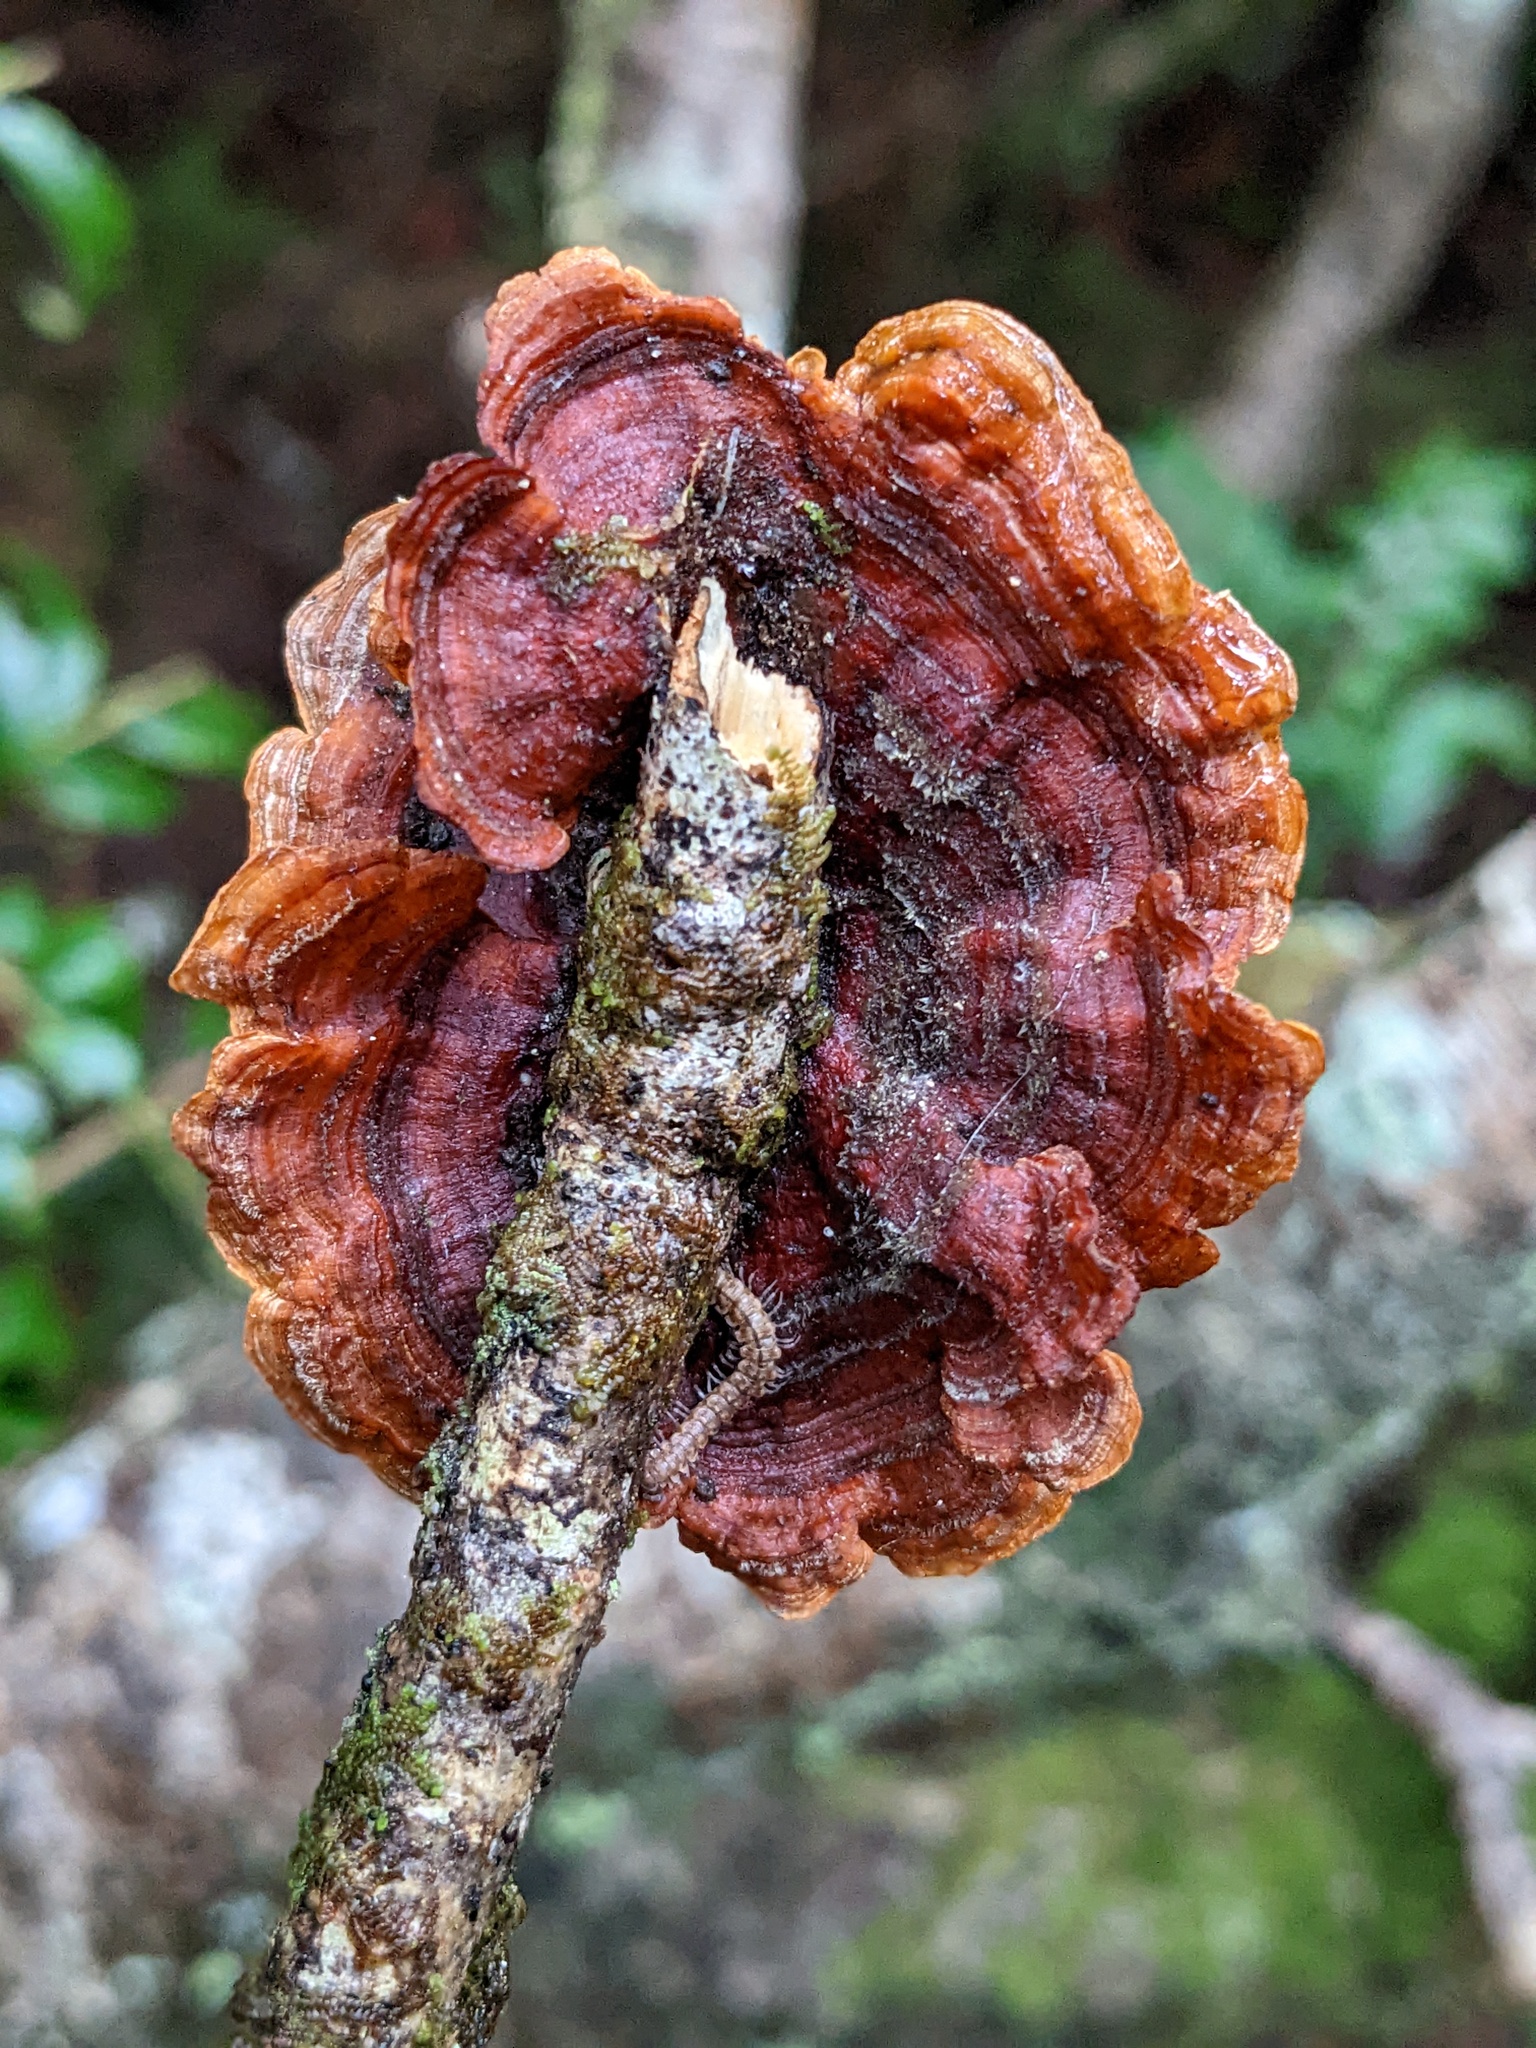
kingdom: Fungi
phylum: Basidiomycota
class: Agaricomycetes
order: Russulales
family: Stereaceae
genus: Stereum
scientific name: Stereum hirsutum
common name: Hairy curtain crust
